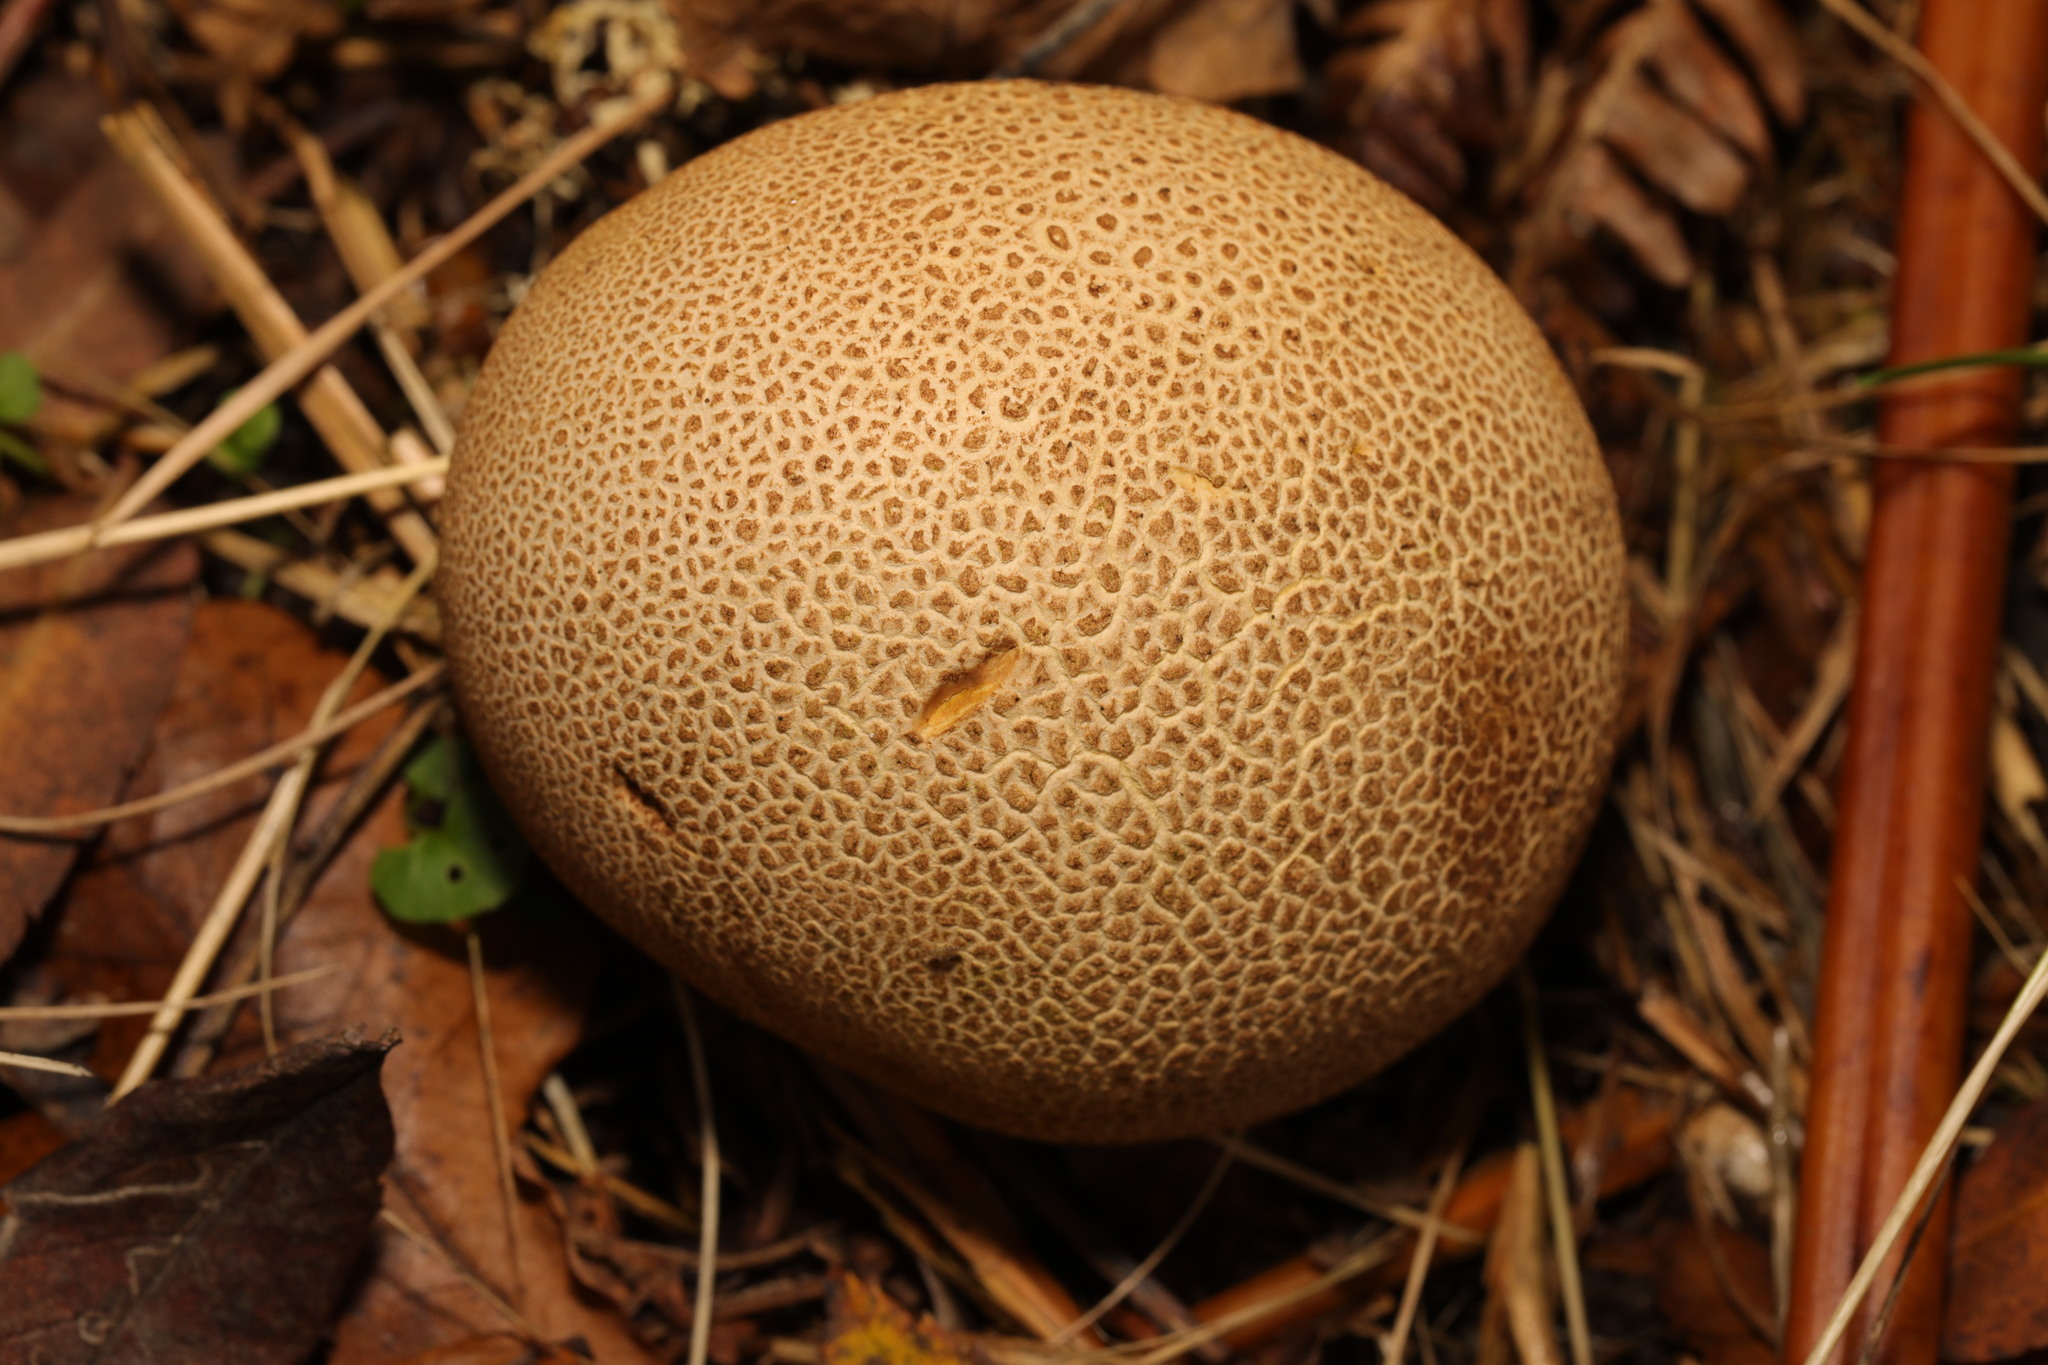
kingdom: Fungi
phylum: Basidiomycota
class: Agaricomycetes
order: Boletales
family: Sclerodermataceae
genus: Scleroderma
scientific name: Scleroderma citrinum
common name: Common earthball
